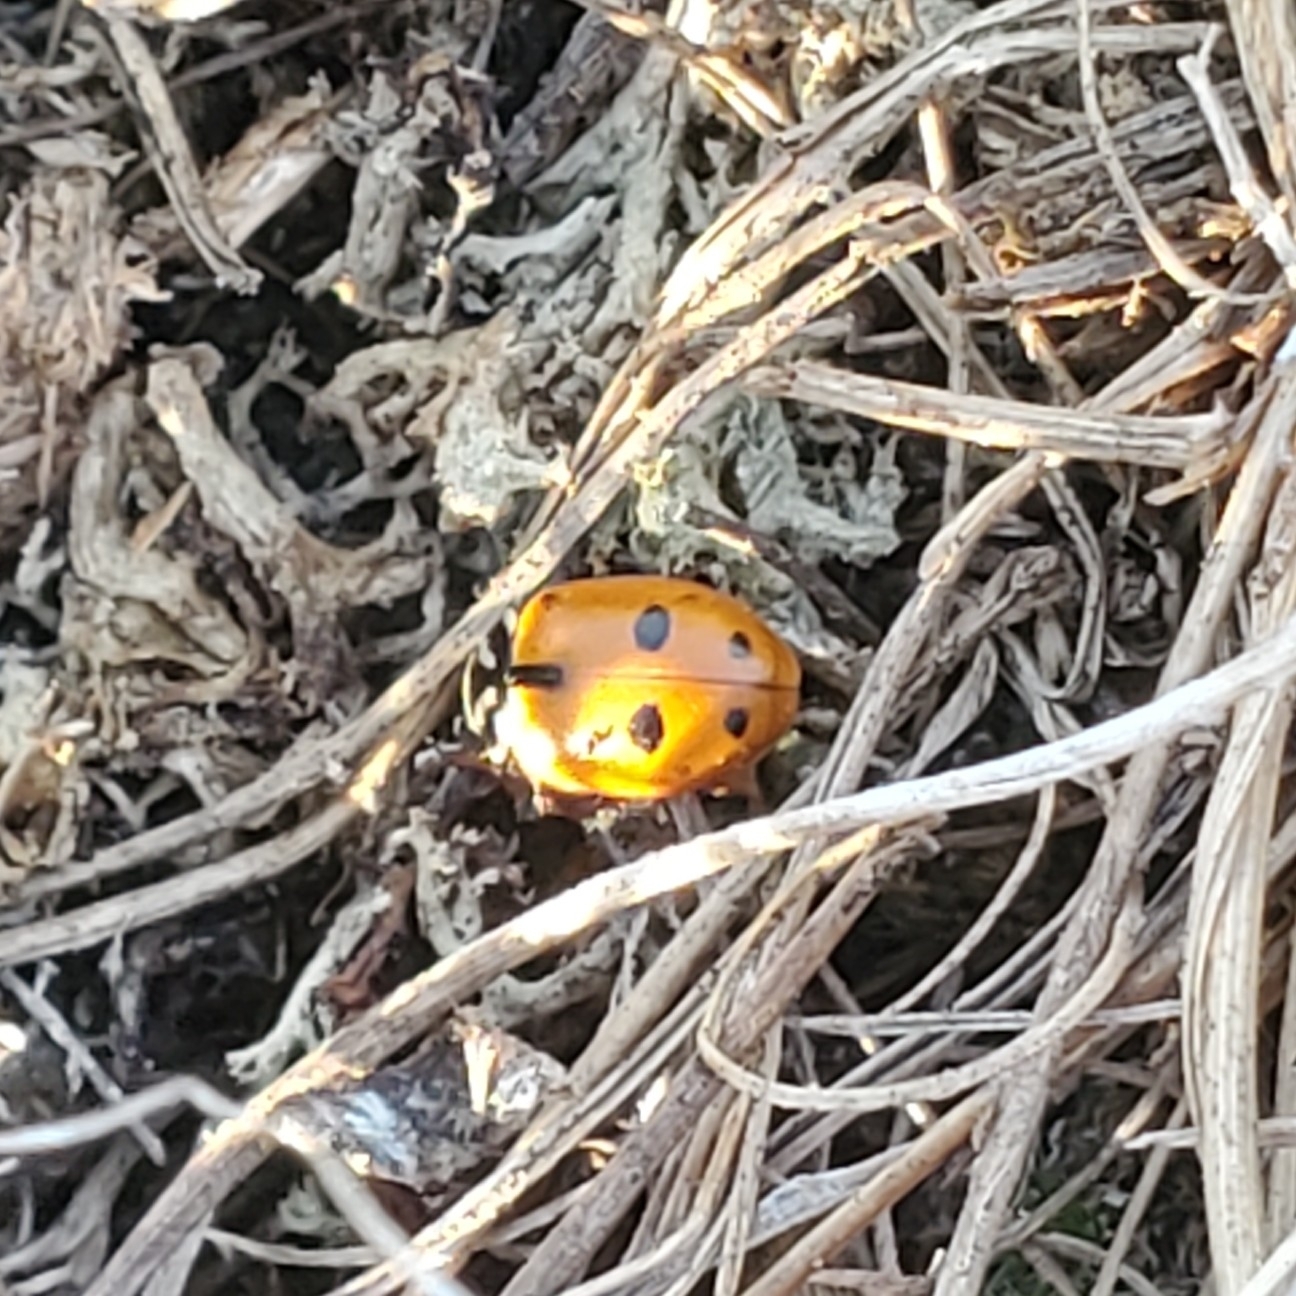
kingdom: Animalia
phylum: Arthropoda
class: Insecta
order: Coleoptera
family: Coccinellidae
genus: Hippodamia
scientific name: Hippodamia convergens
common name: Convergent lady beetle
